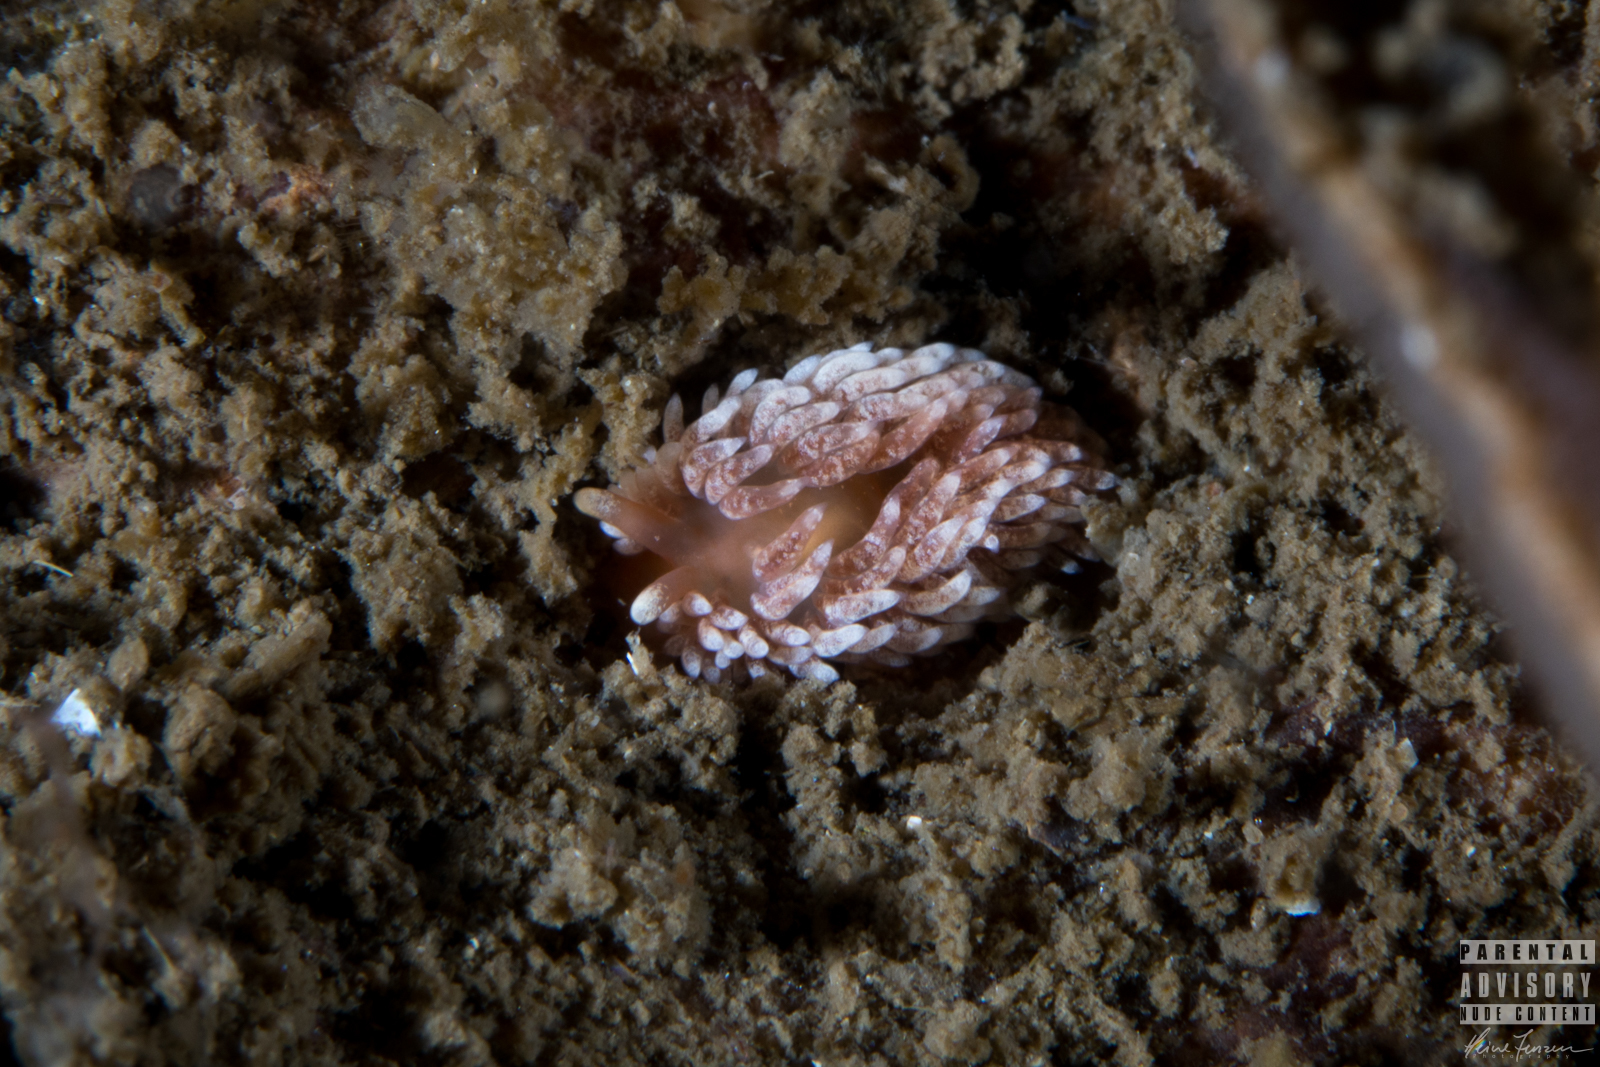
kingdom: Animalia
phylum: Mollusca
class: Gastropoda
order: Nudibranchia
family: Aeolidiidae
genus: Aeolidiella
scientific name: Aeolidiella glauca
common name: Orange-brown aeolid
